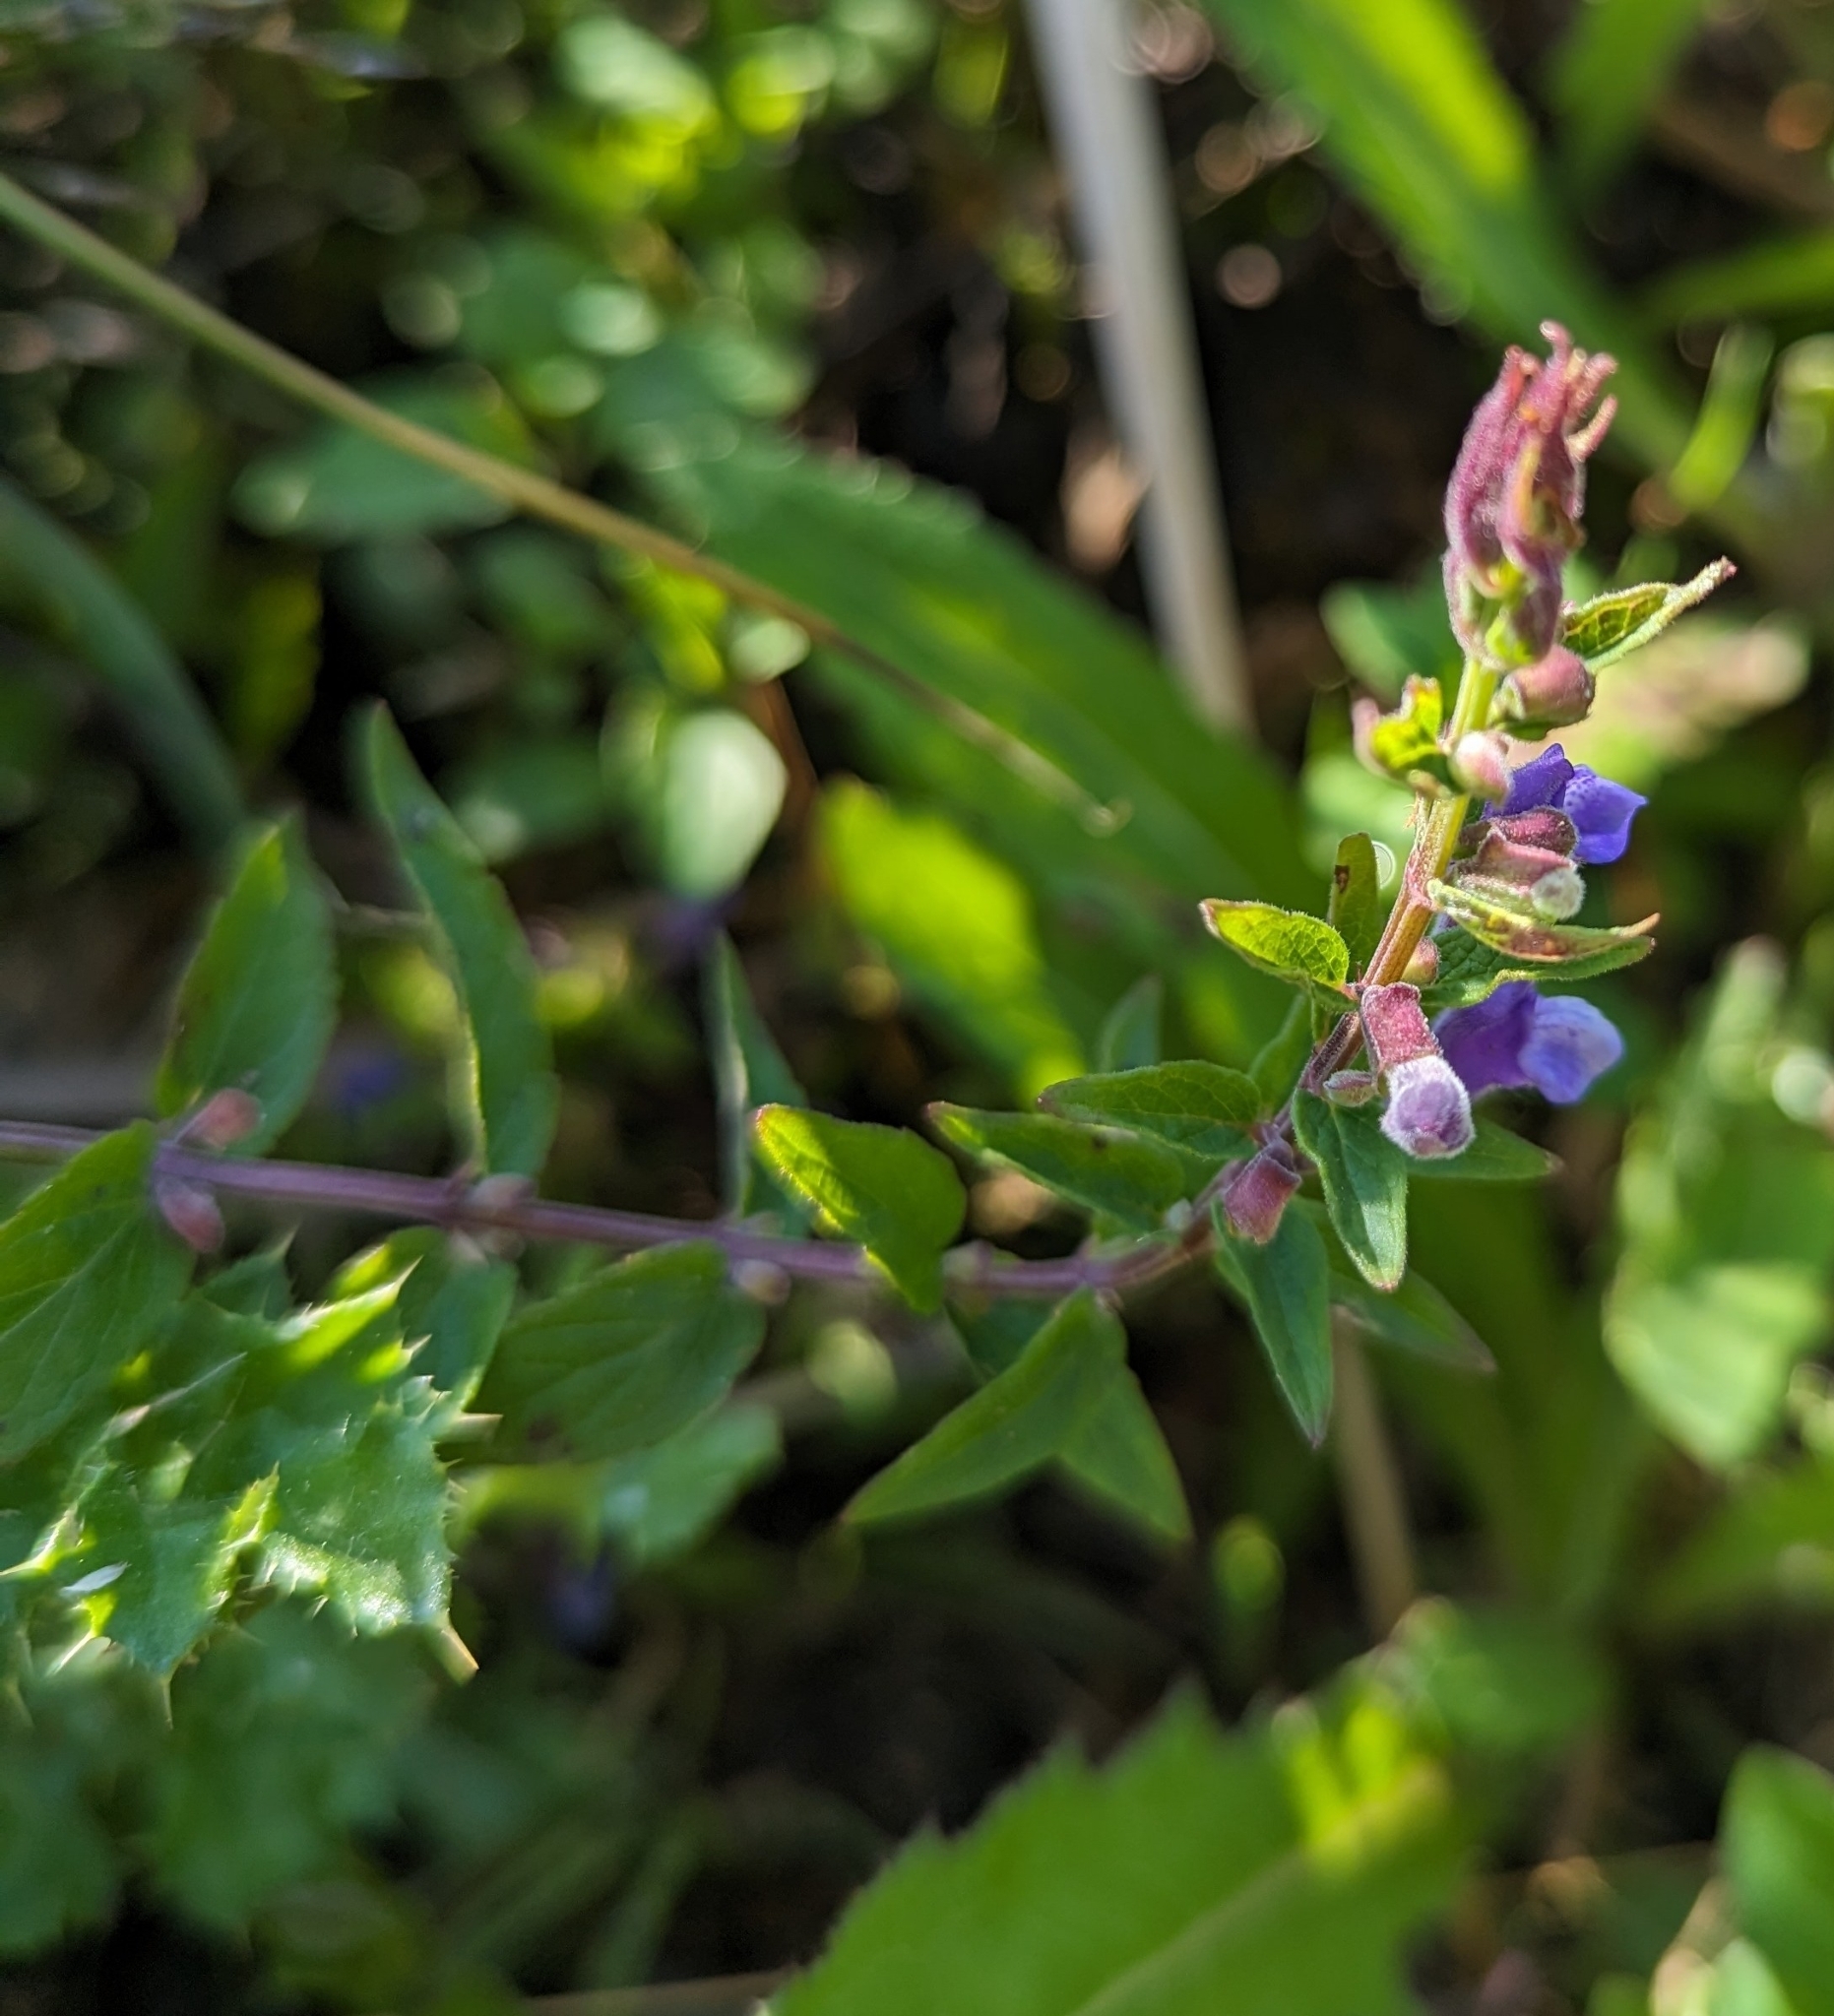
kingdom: Plantae
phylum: Tracheophyta
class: Magnoliopsida
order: Lamiales
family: Lamiaceae
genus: Scutellaria
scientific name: Scutellaria galericulata
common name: Skullcap
